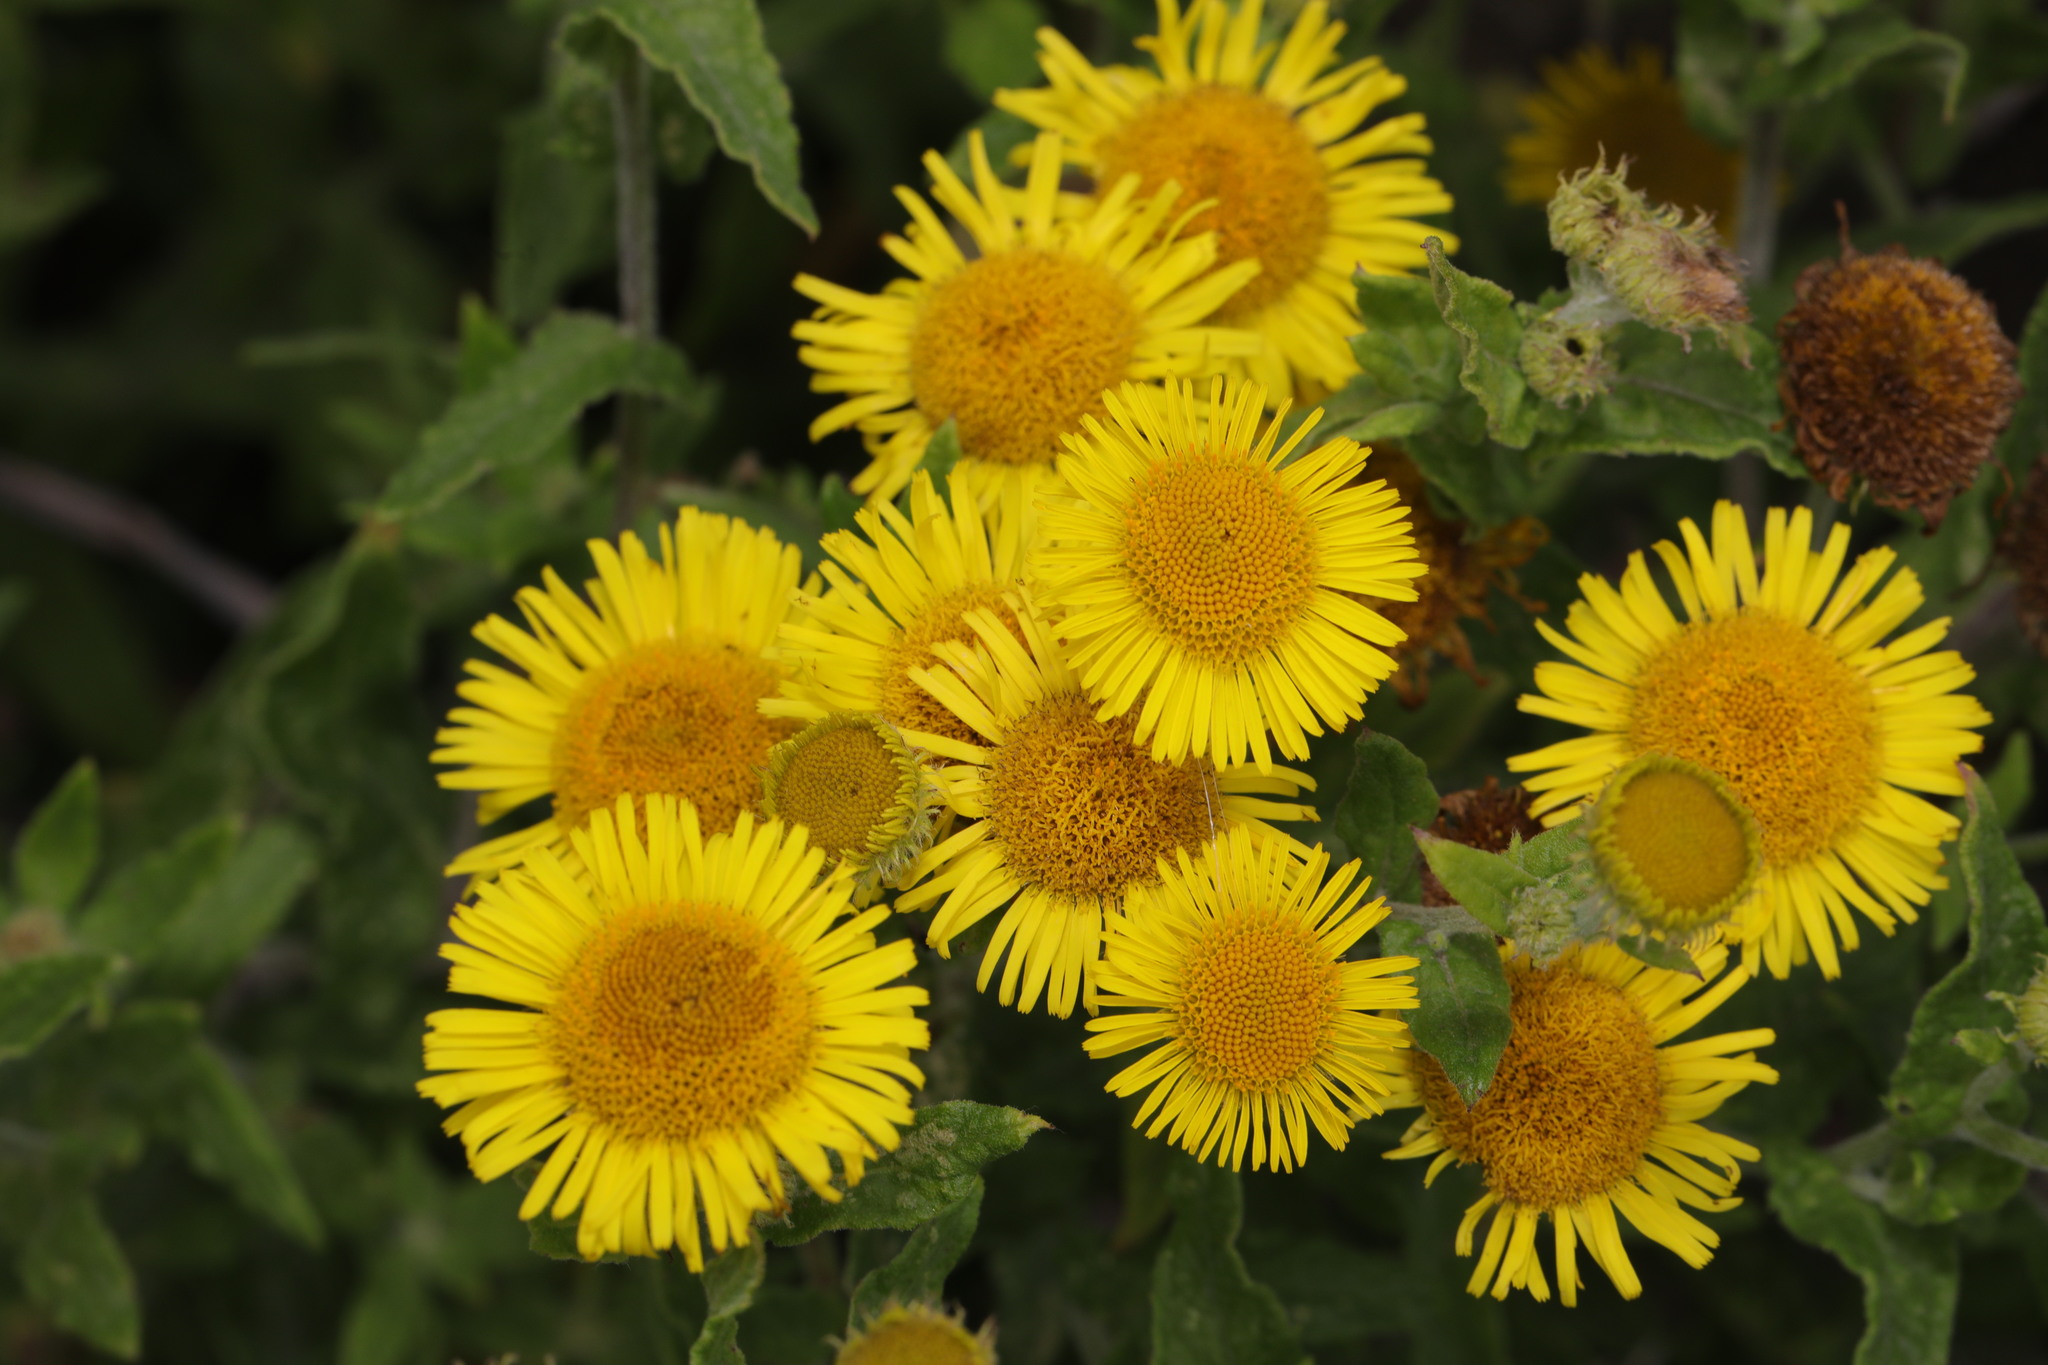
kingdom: Plantae
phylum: Tracheophyta
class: Magnoliopsida
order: Asterales
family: Asteraceae
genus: Pulicaria
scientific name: Pulicaria dysenterica
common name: Common fleabane
